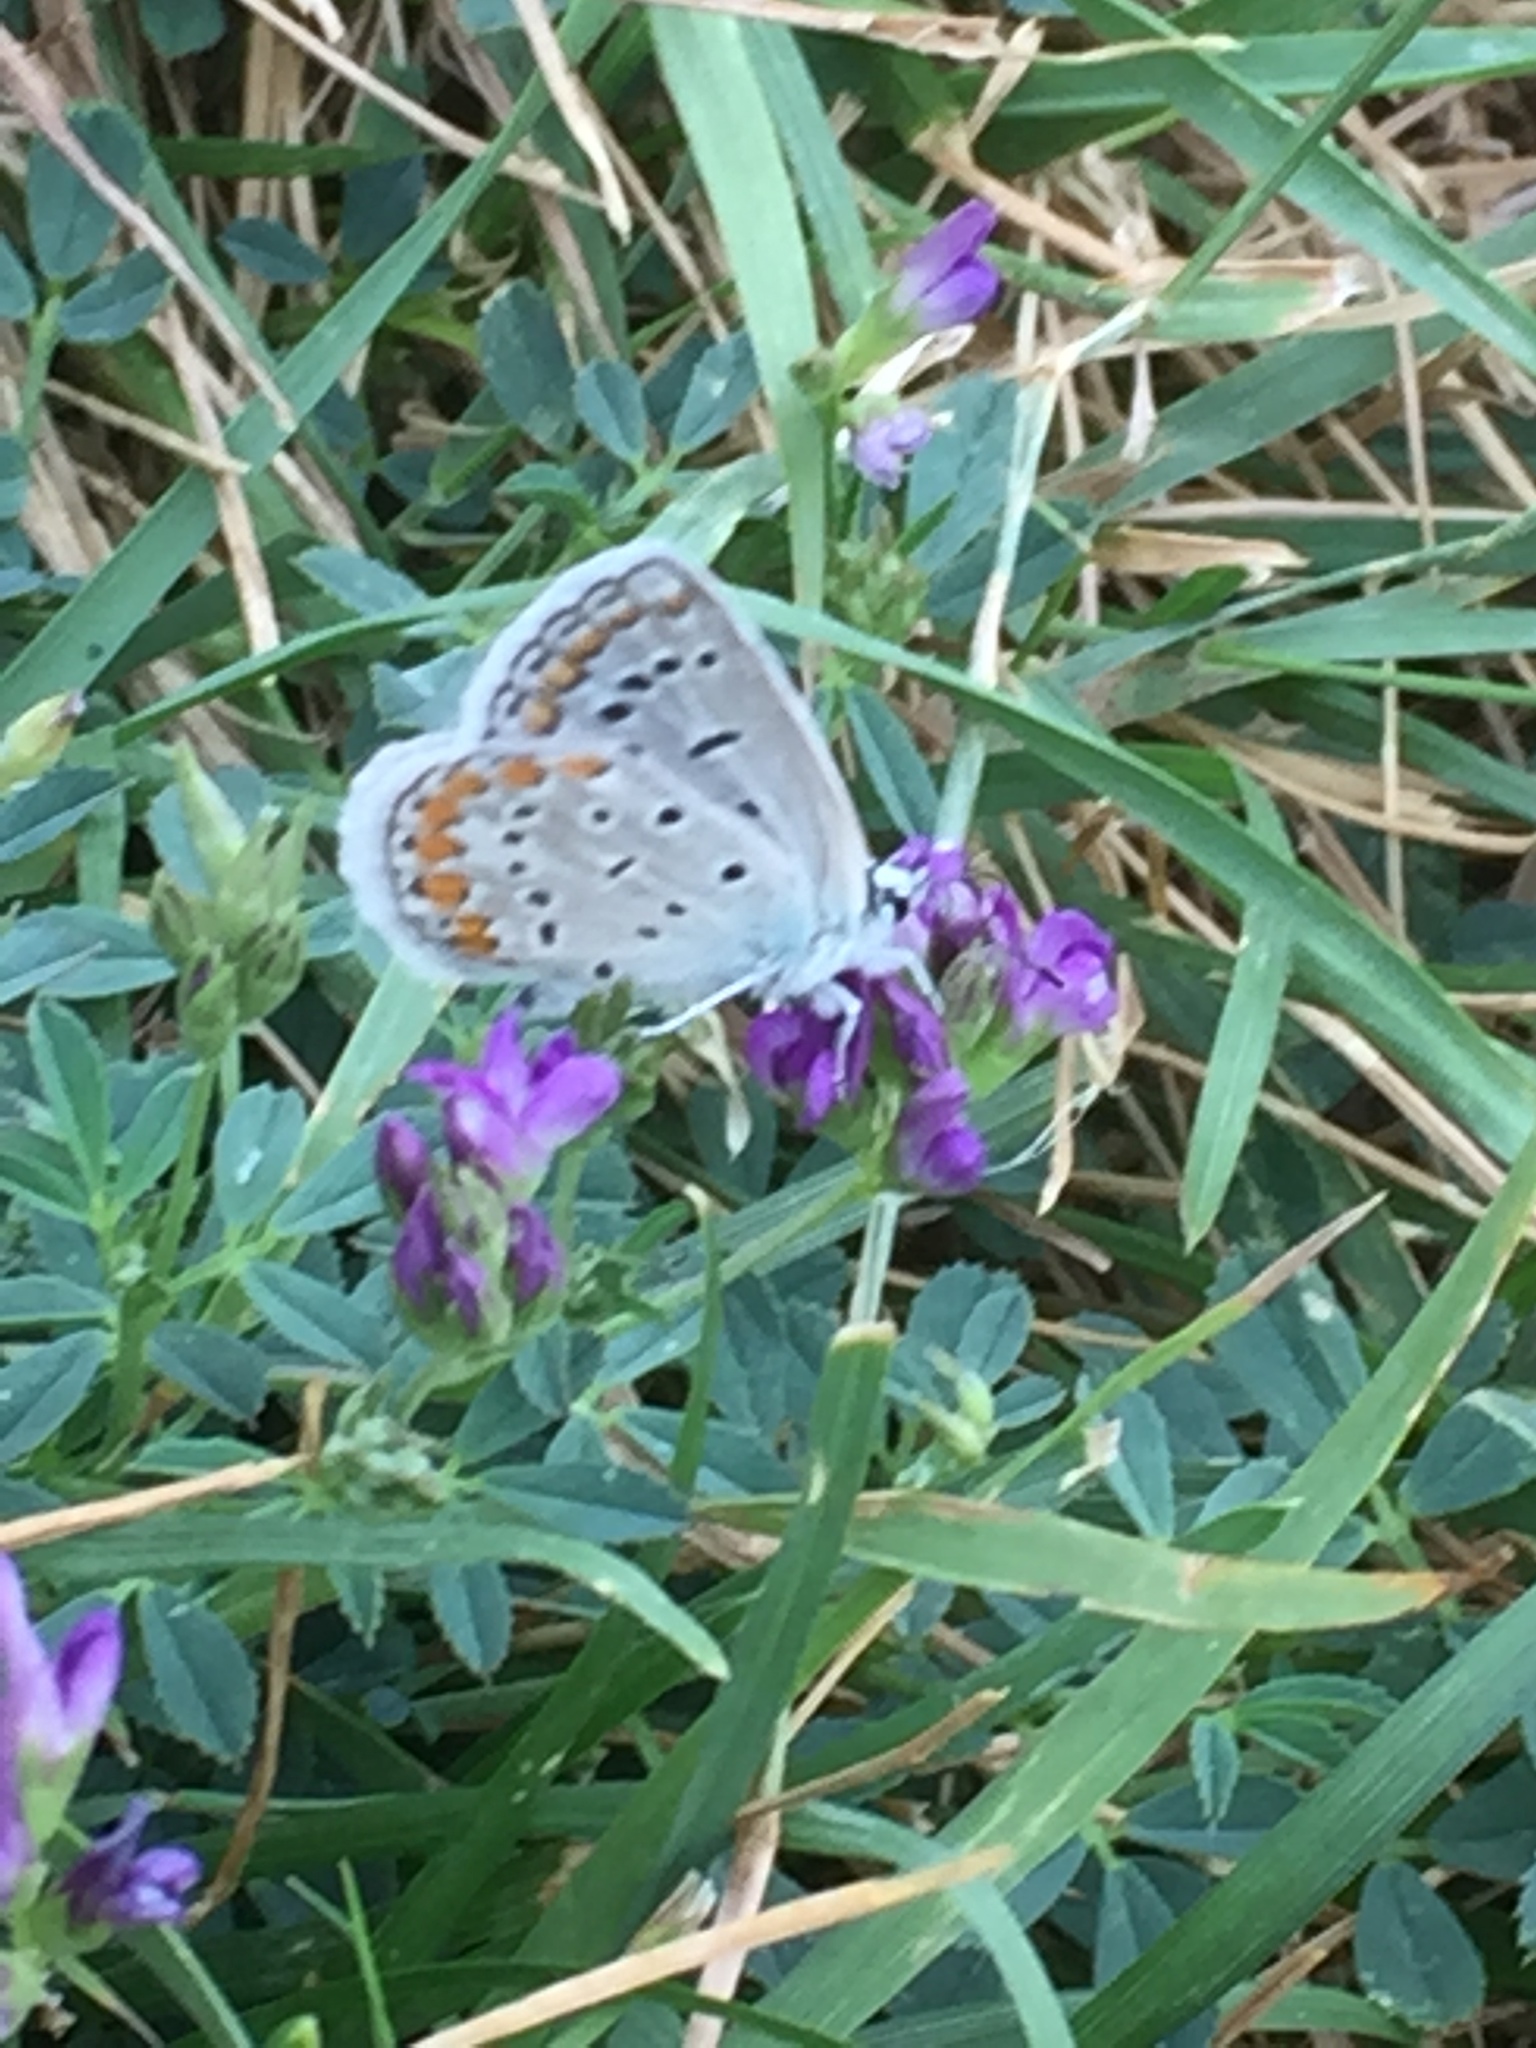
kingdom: Animalia
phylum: Arthropoda
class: Insecta
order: Lepidoptera
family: Lycaenidae
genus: Polyommatus
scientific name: Polyommatus icarus
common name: Common blue
